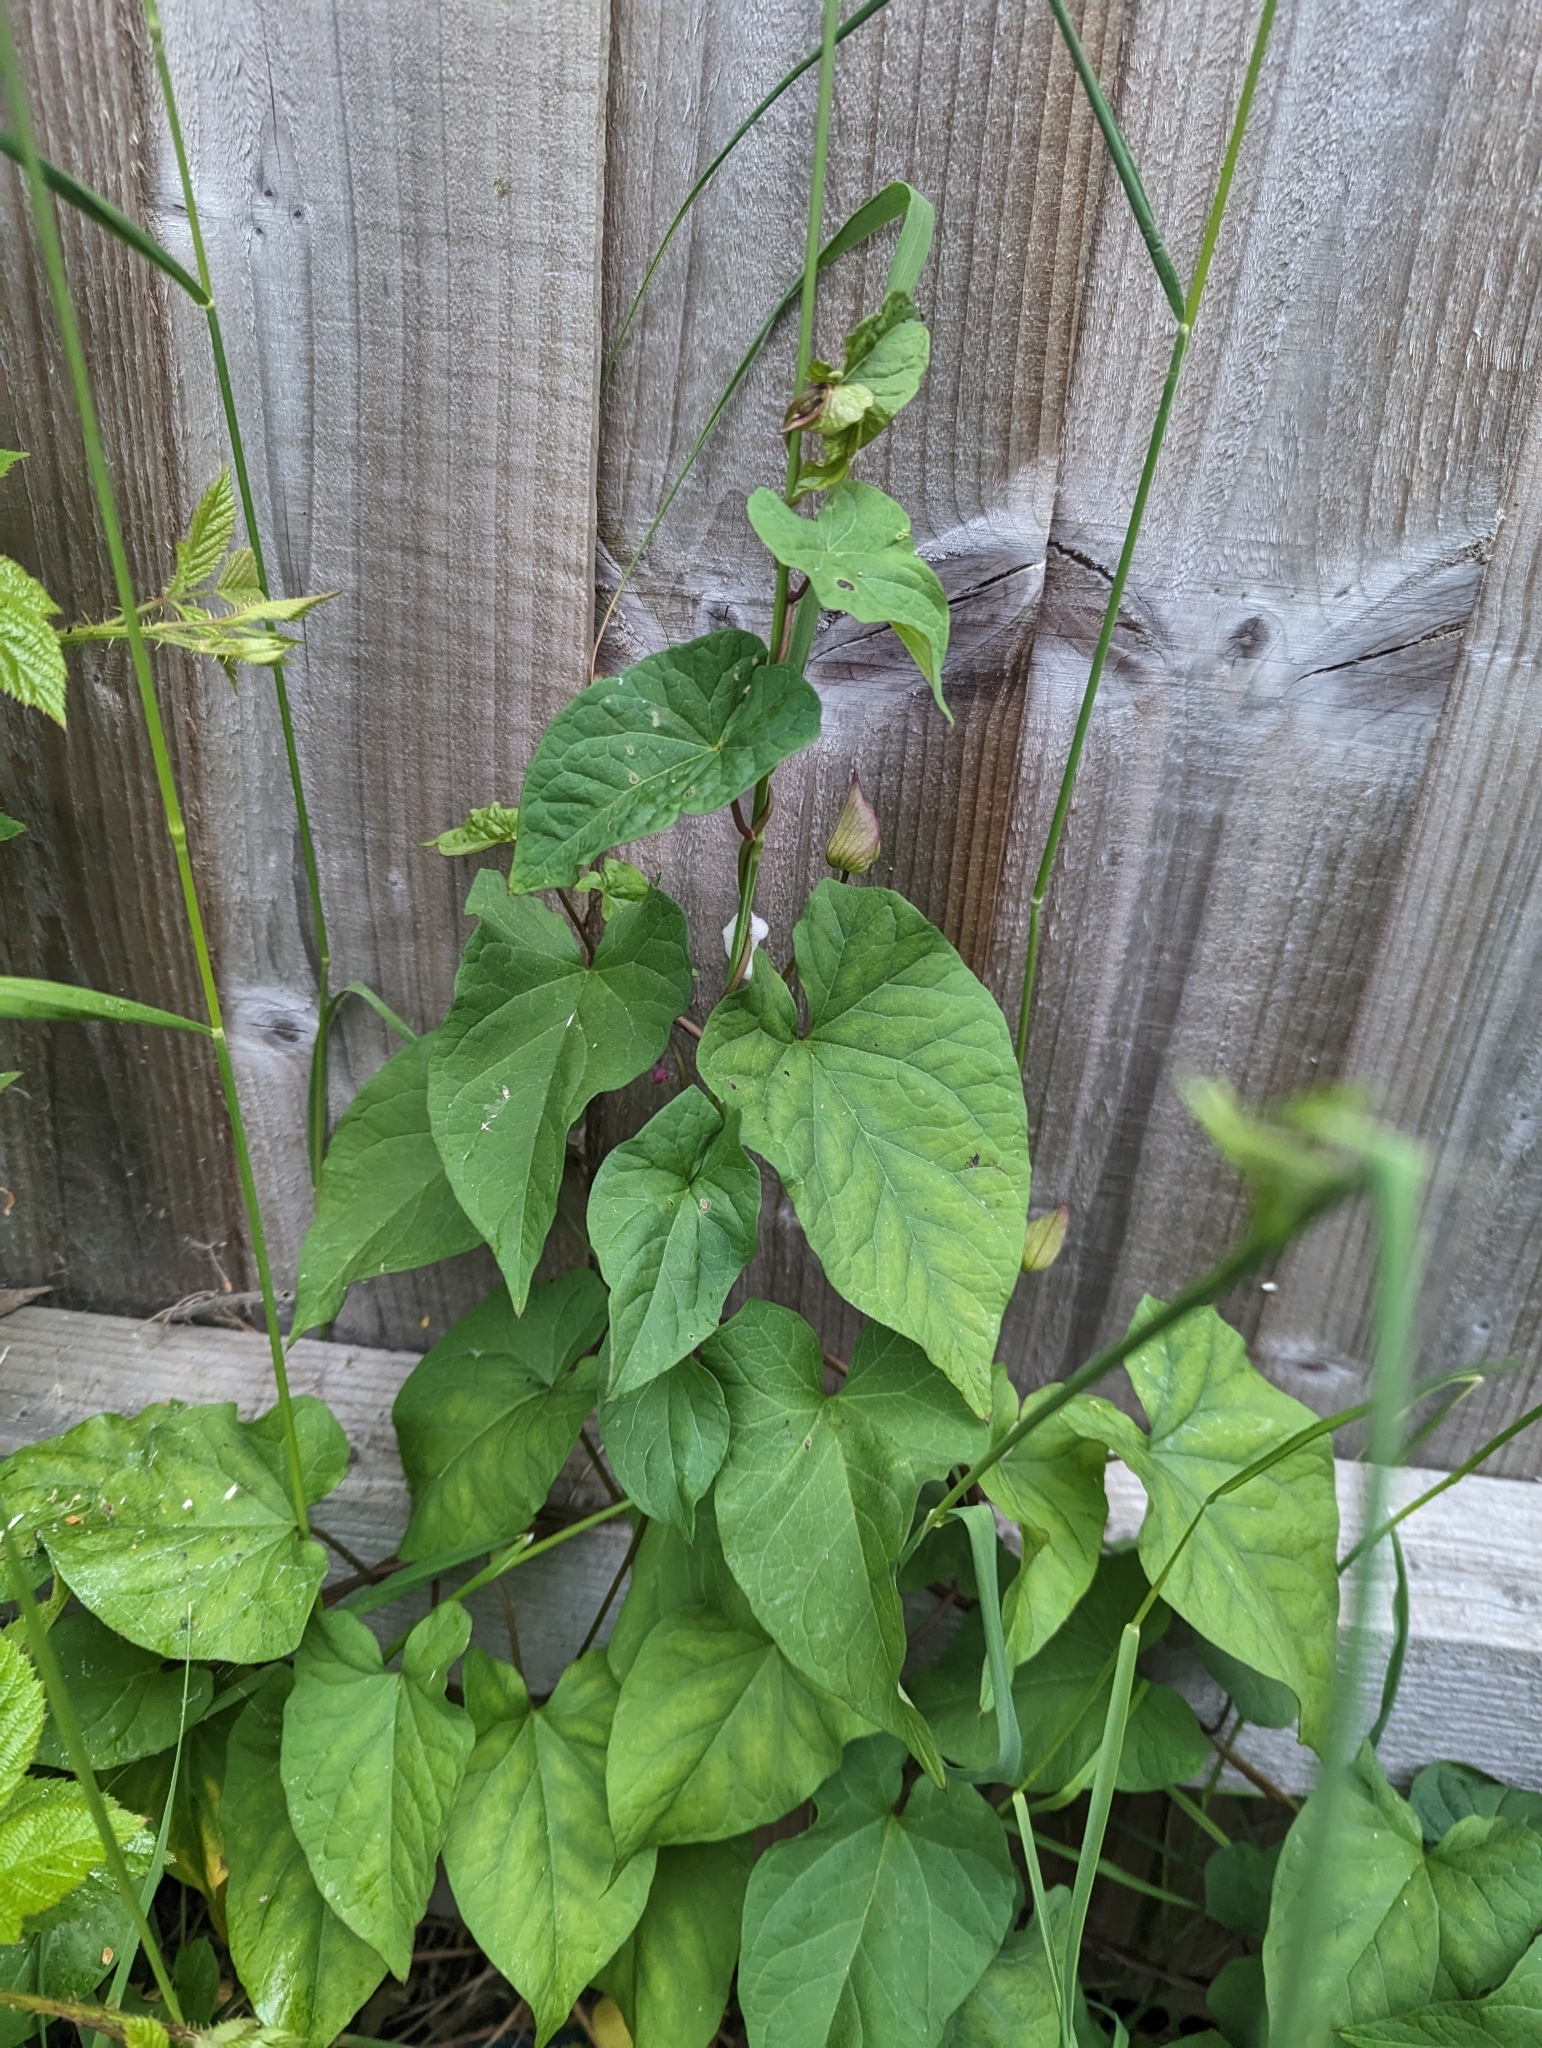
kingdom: Plantae
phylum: Tracheophyta
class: Magnoliopsida
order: Solanales
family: Convolvulaceae
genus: Calystegia
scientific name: Calystegia silvatica
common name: Large bindweed
